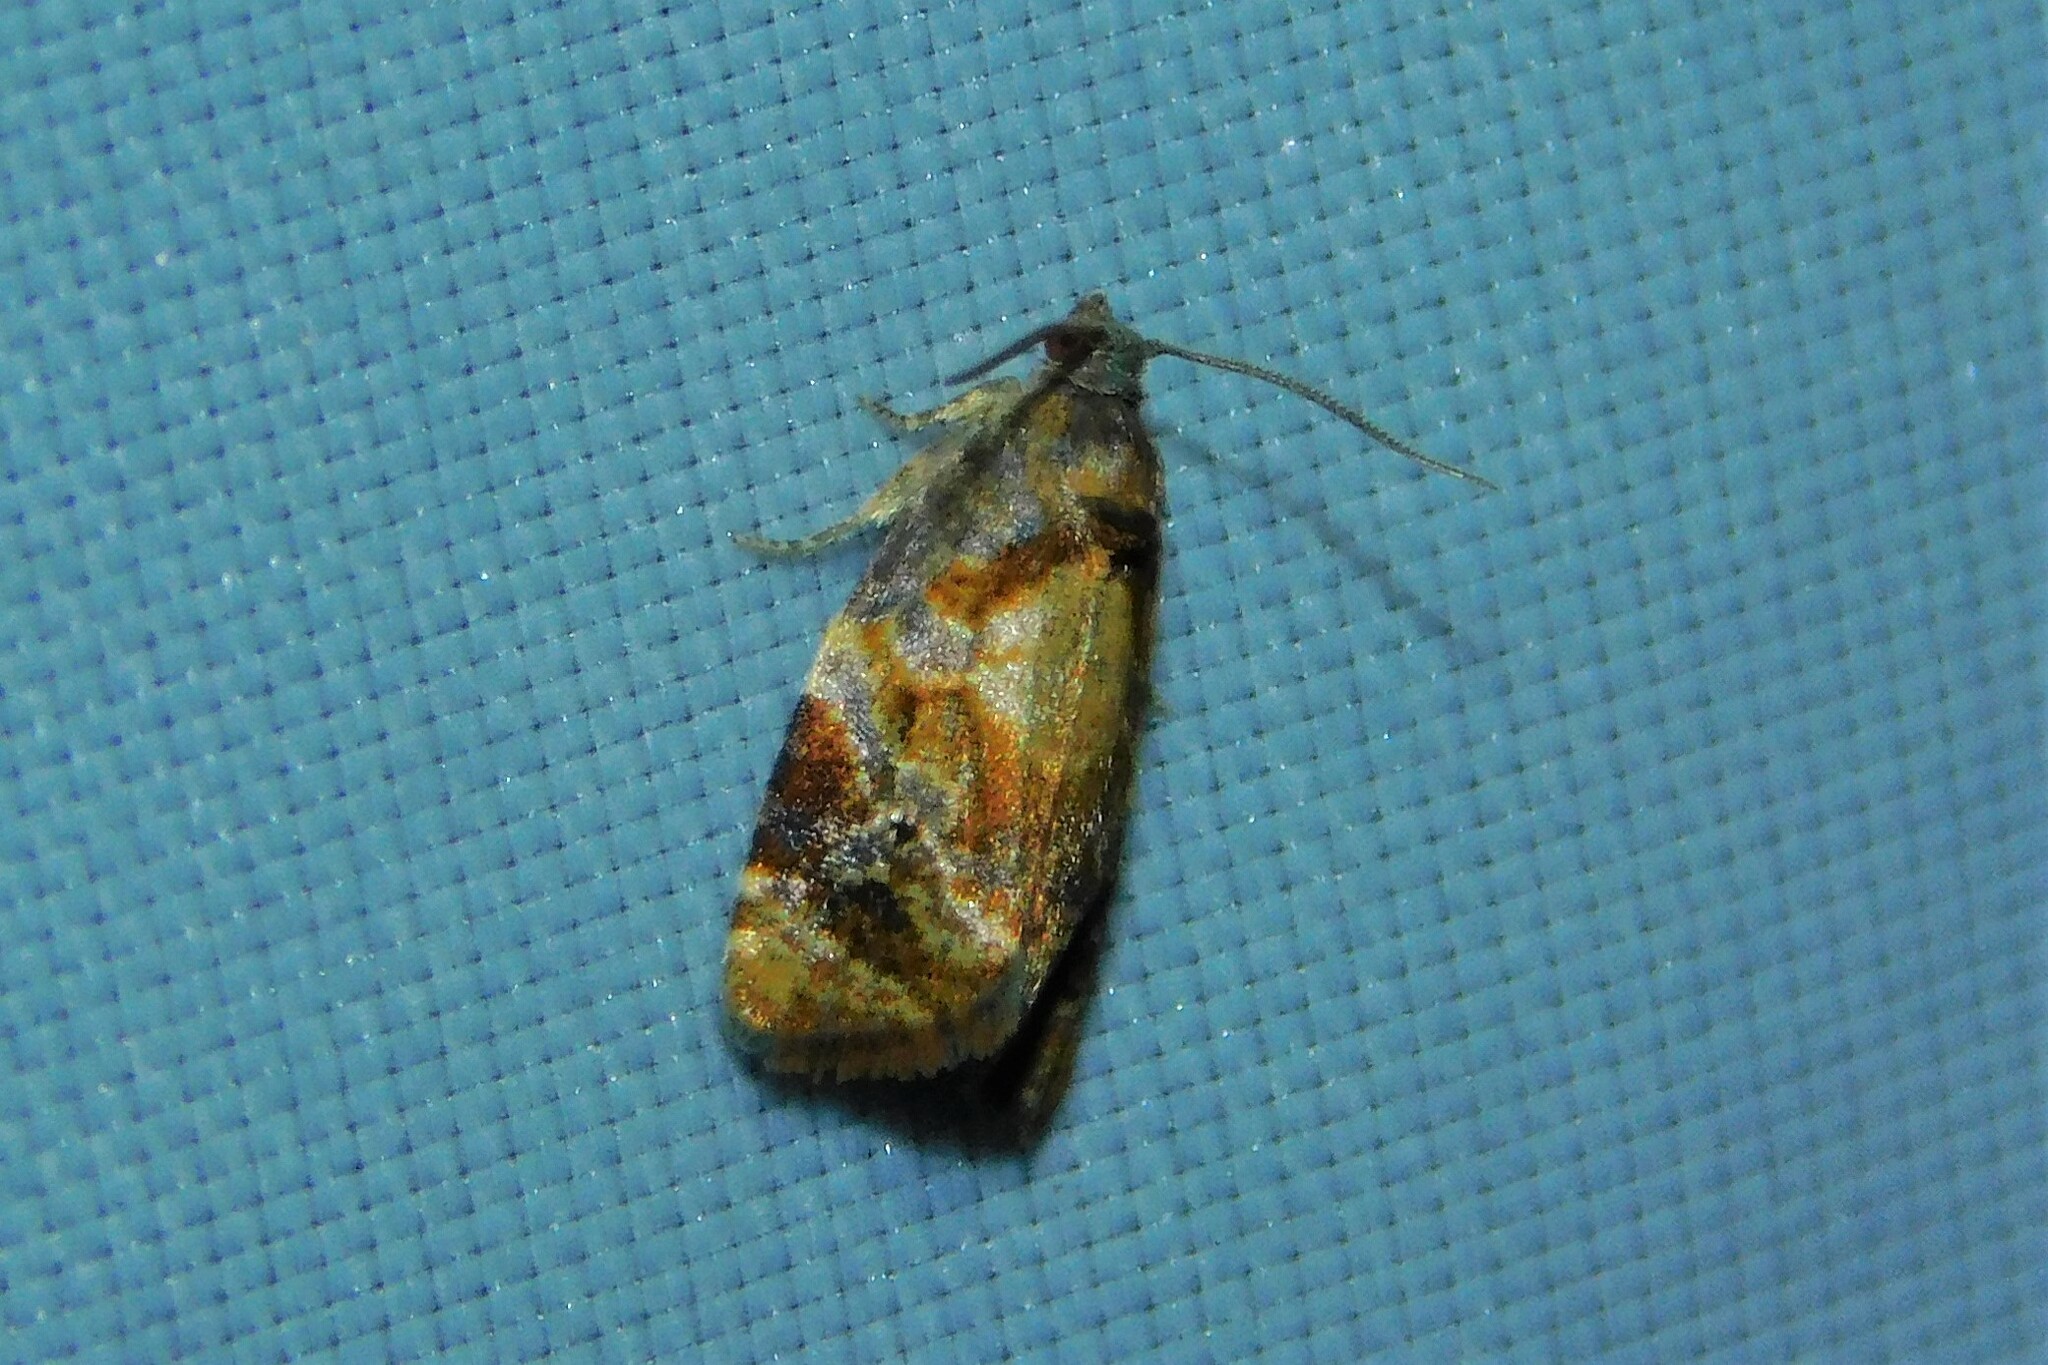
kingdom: Animalia
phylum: Arthropoda
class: Insecta
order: Lepidoptera
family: Tortricidae
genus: Ditula
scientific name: Ditula angustiorana
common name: Red-barred tortrix
